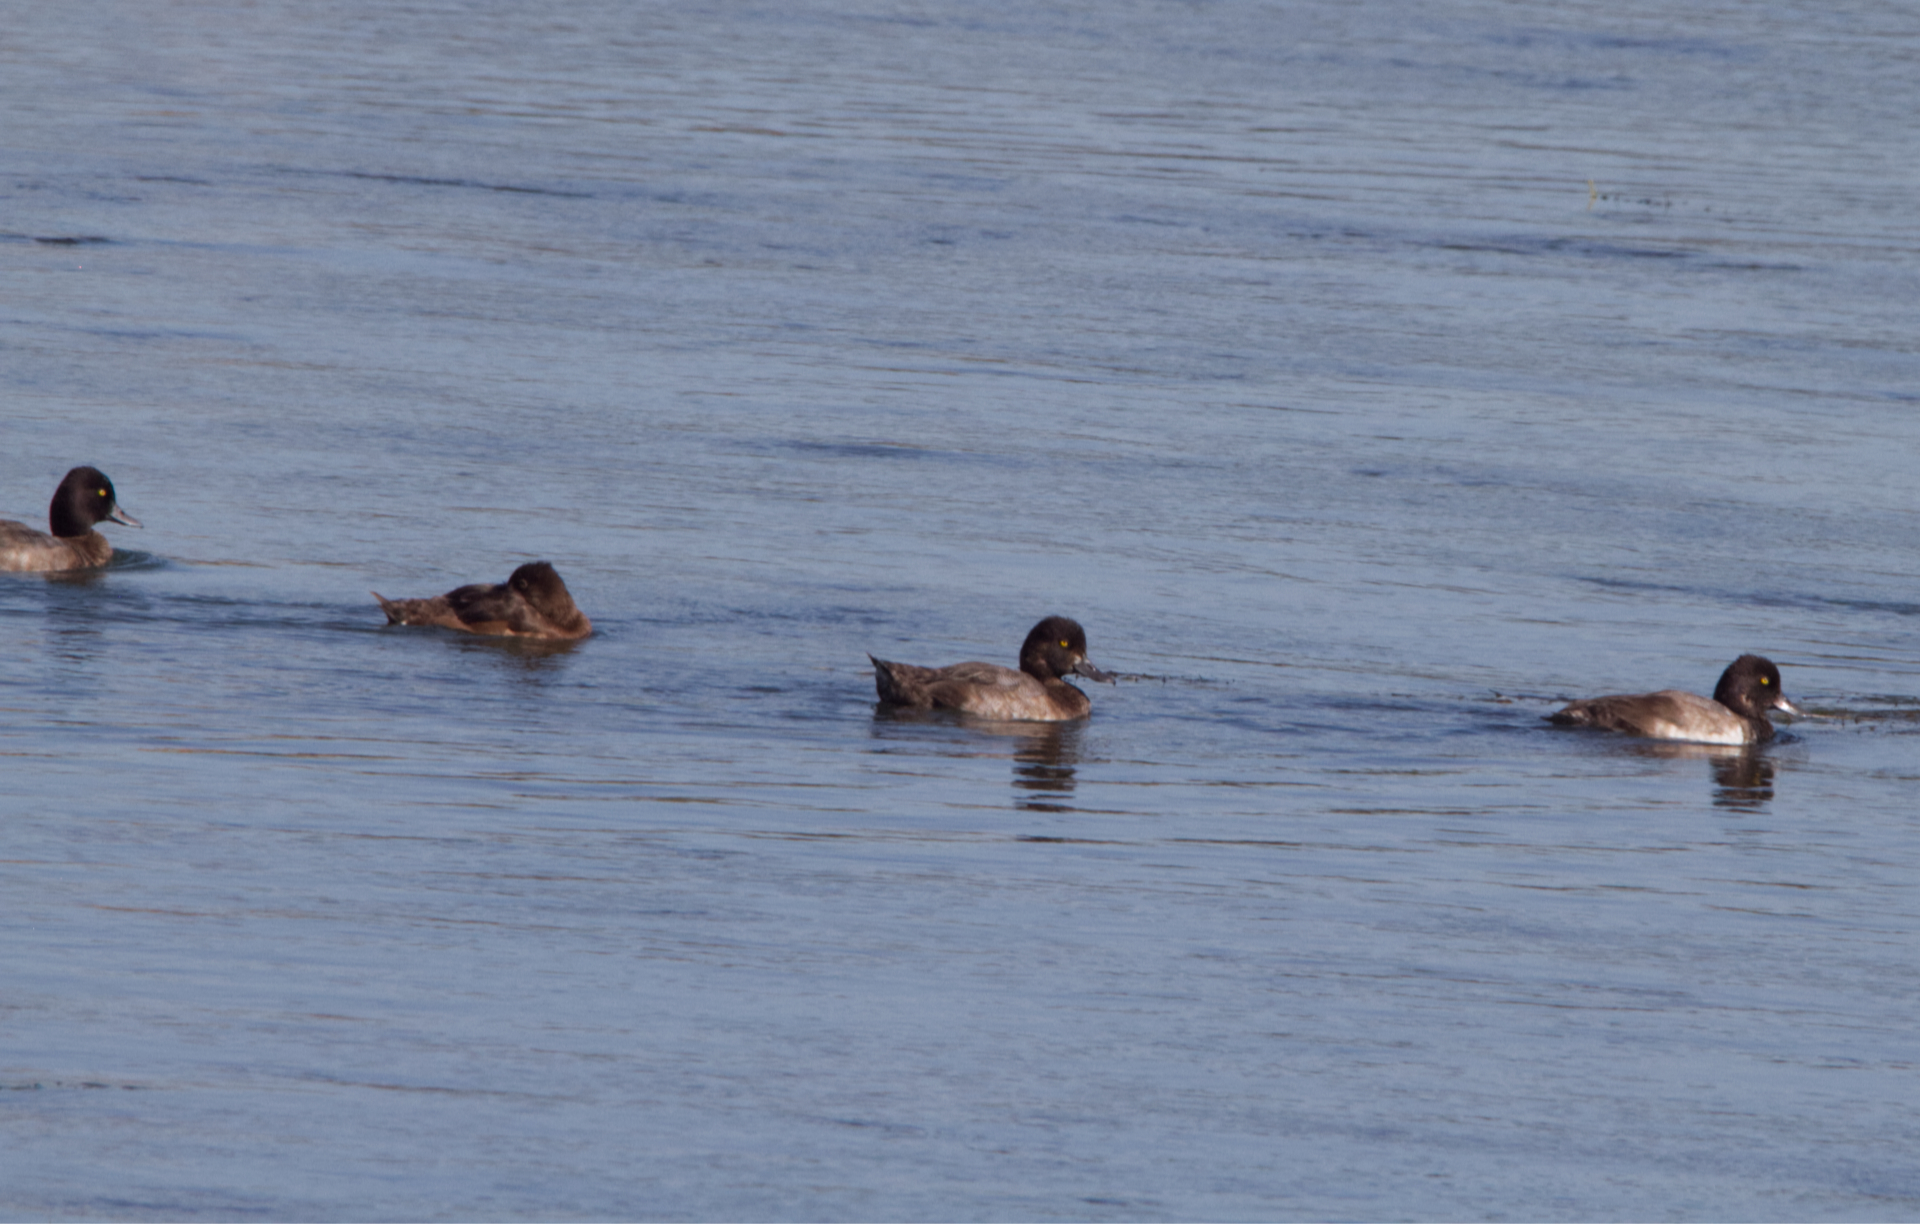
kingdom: Animalia
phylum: Chordata
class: Aves
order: Anseriformes
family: Anatidae
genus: Aythya
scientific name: Aythya affinis
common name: Lesser scaup
